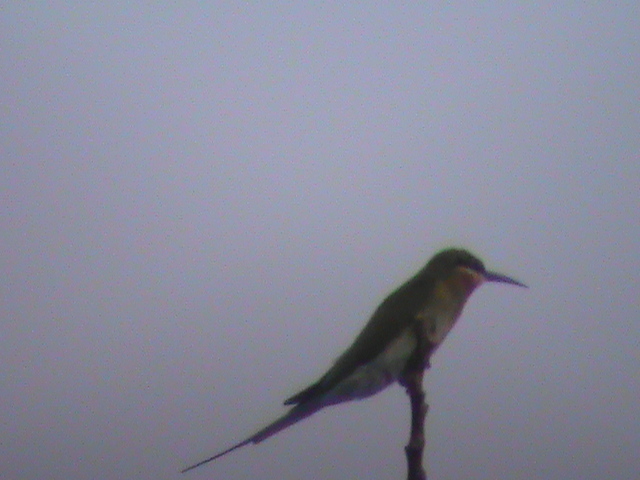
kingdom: Animalia
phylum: Chordata
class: Aves
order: Coraciiformes
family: Meropidae
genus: Merops
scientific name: Merops philippinus
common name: Blue-tailed bee-eater
